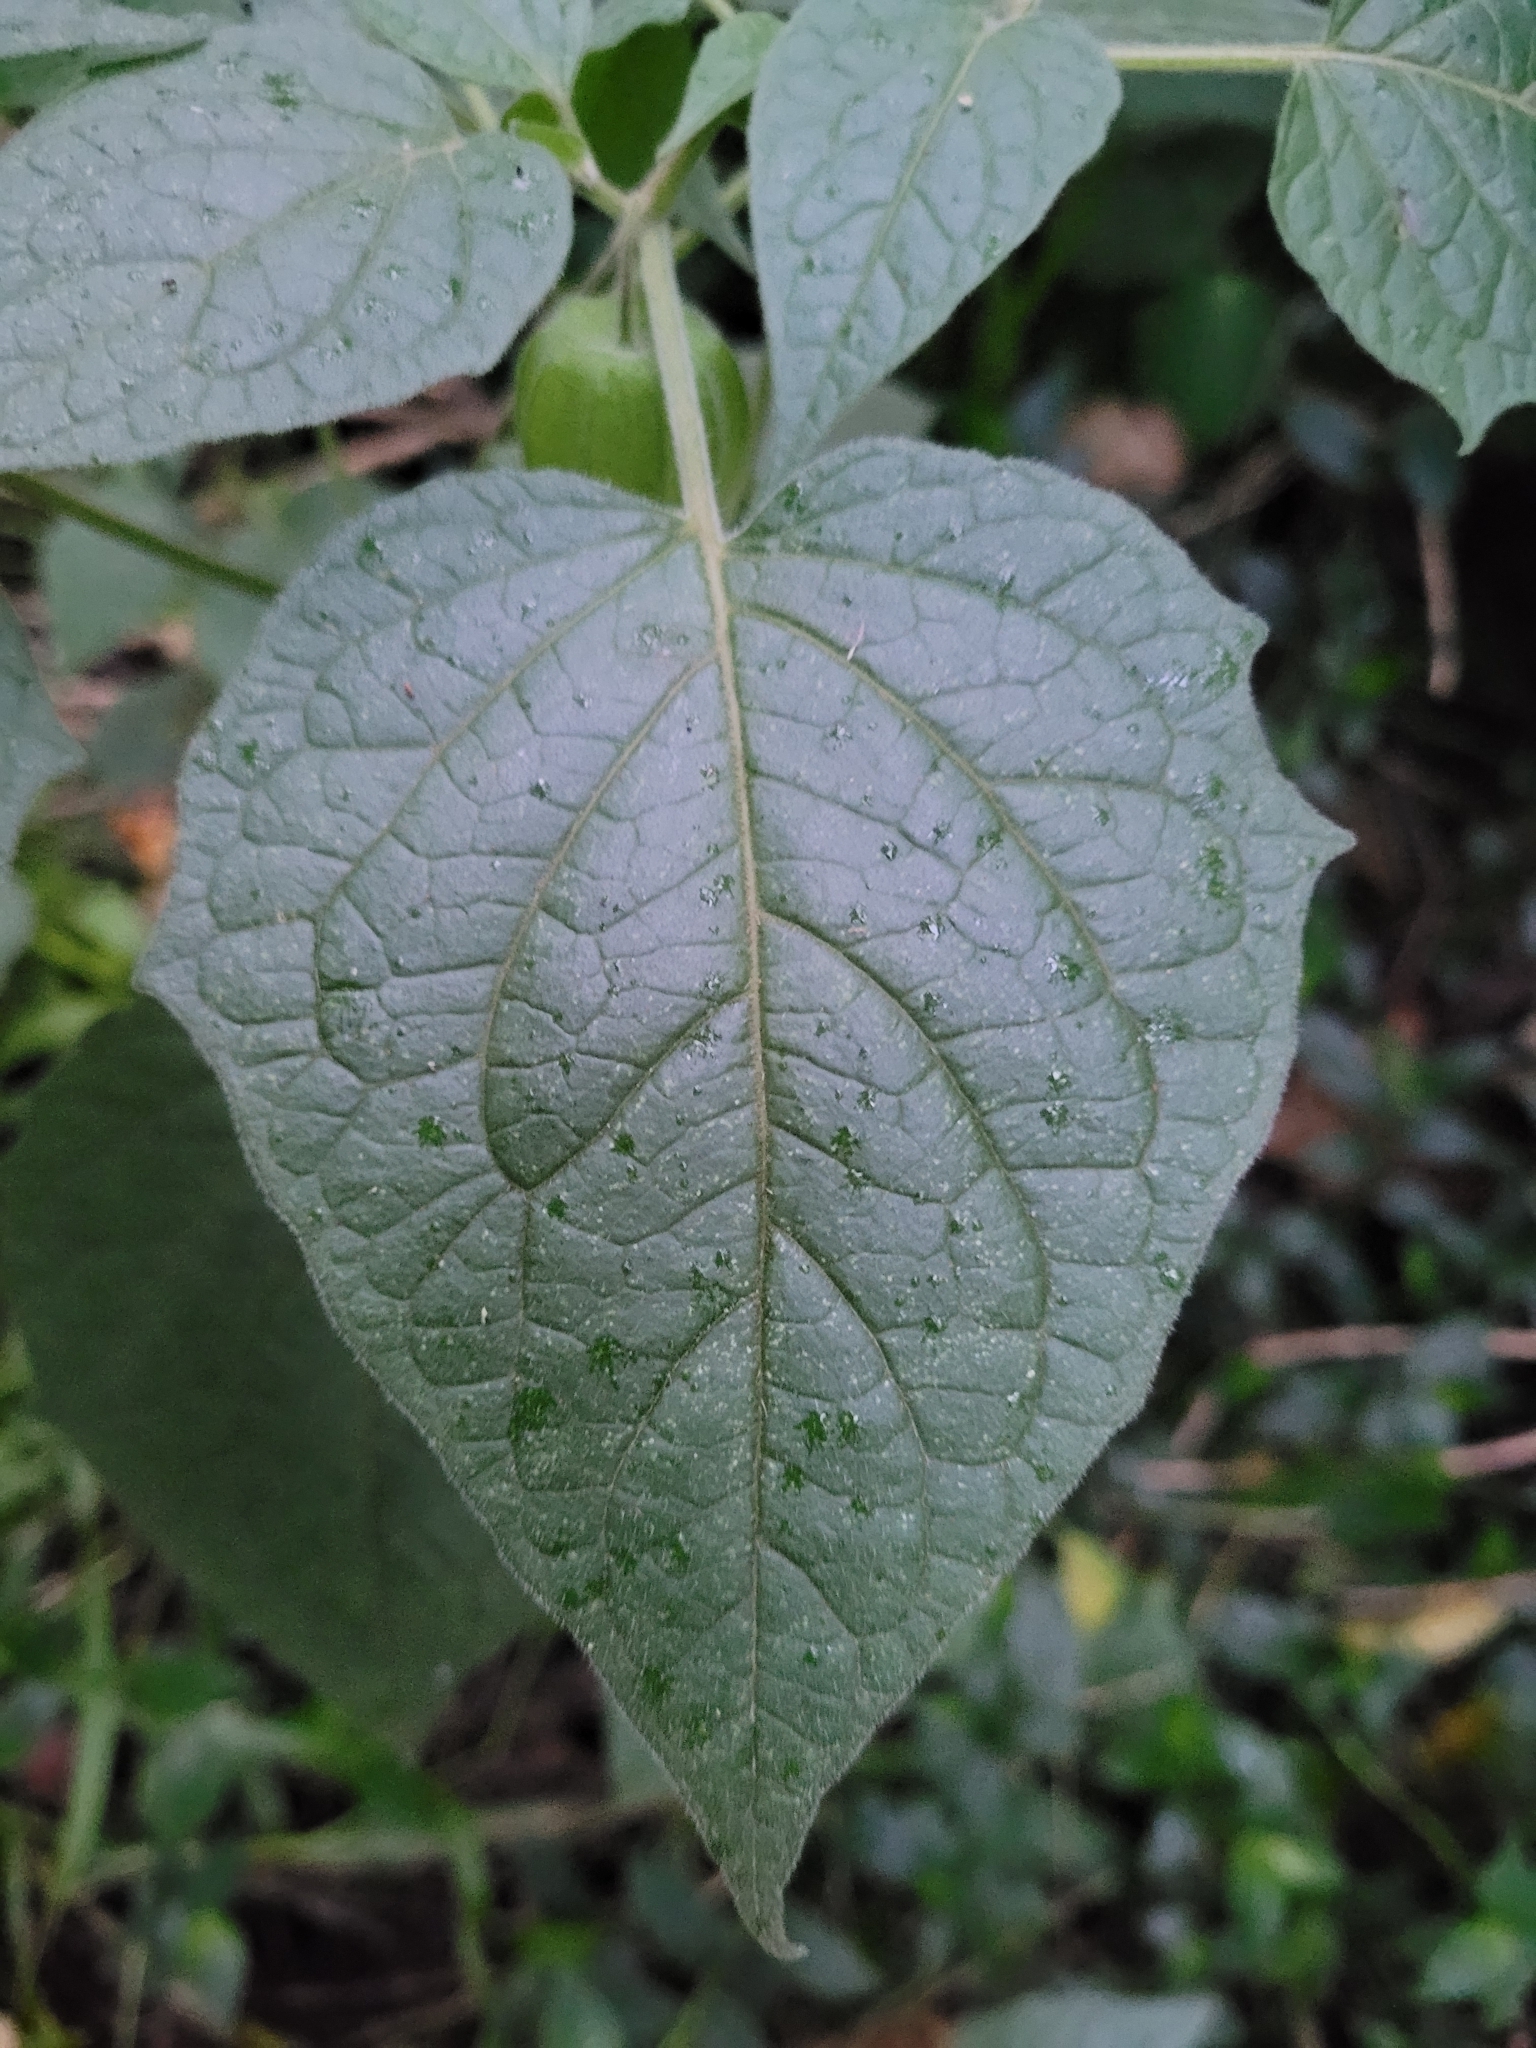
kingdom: Plantae
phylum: Tracheophyta
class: Magnoliopsida
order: Solanales
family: Solanaceae
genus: Physalis
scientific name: Physalis peruviana
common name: Cape-gooseberry
